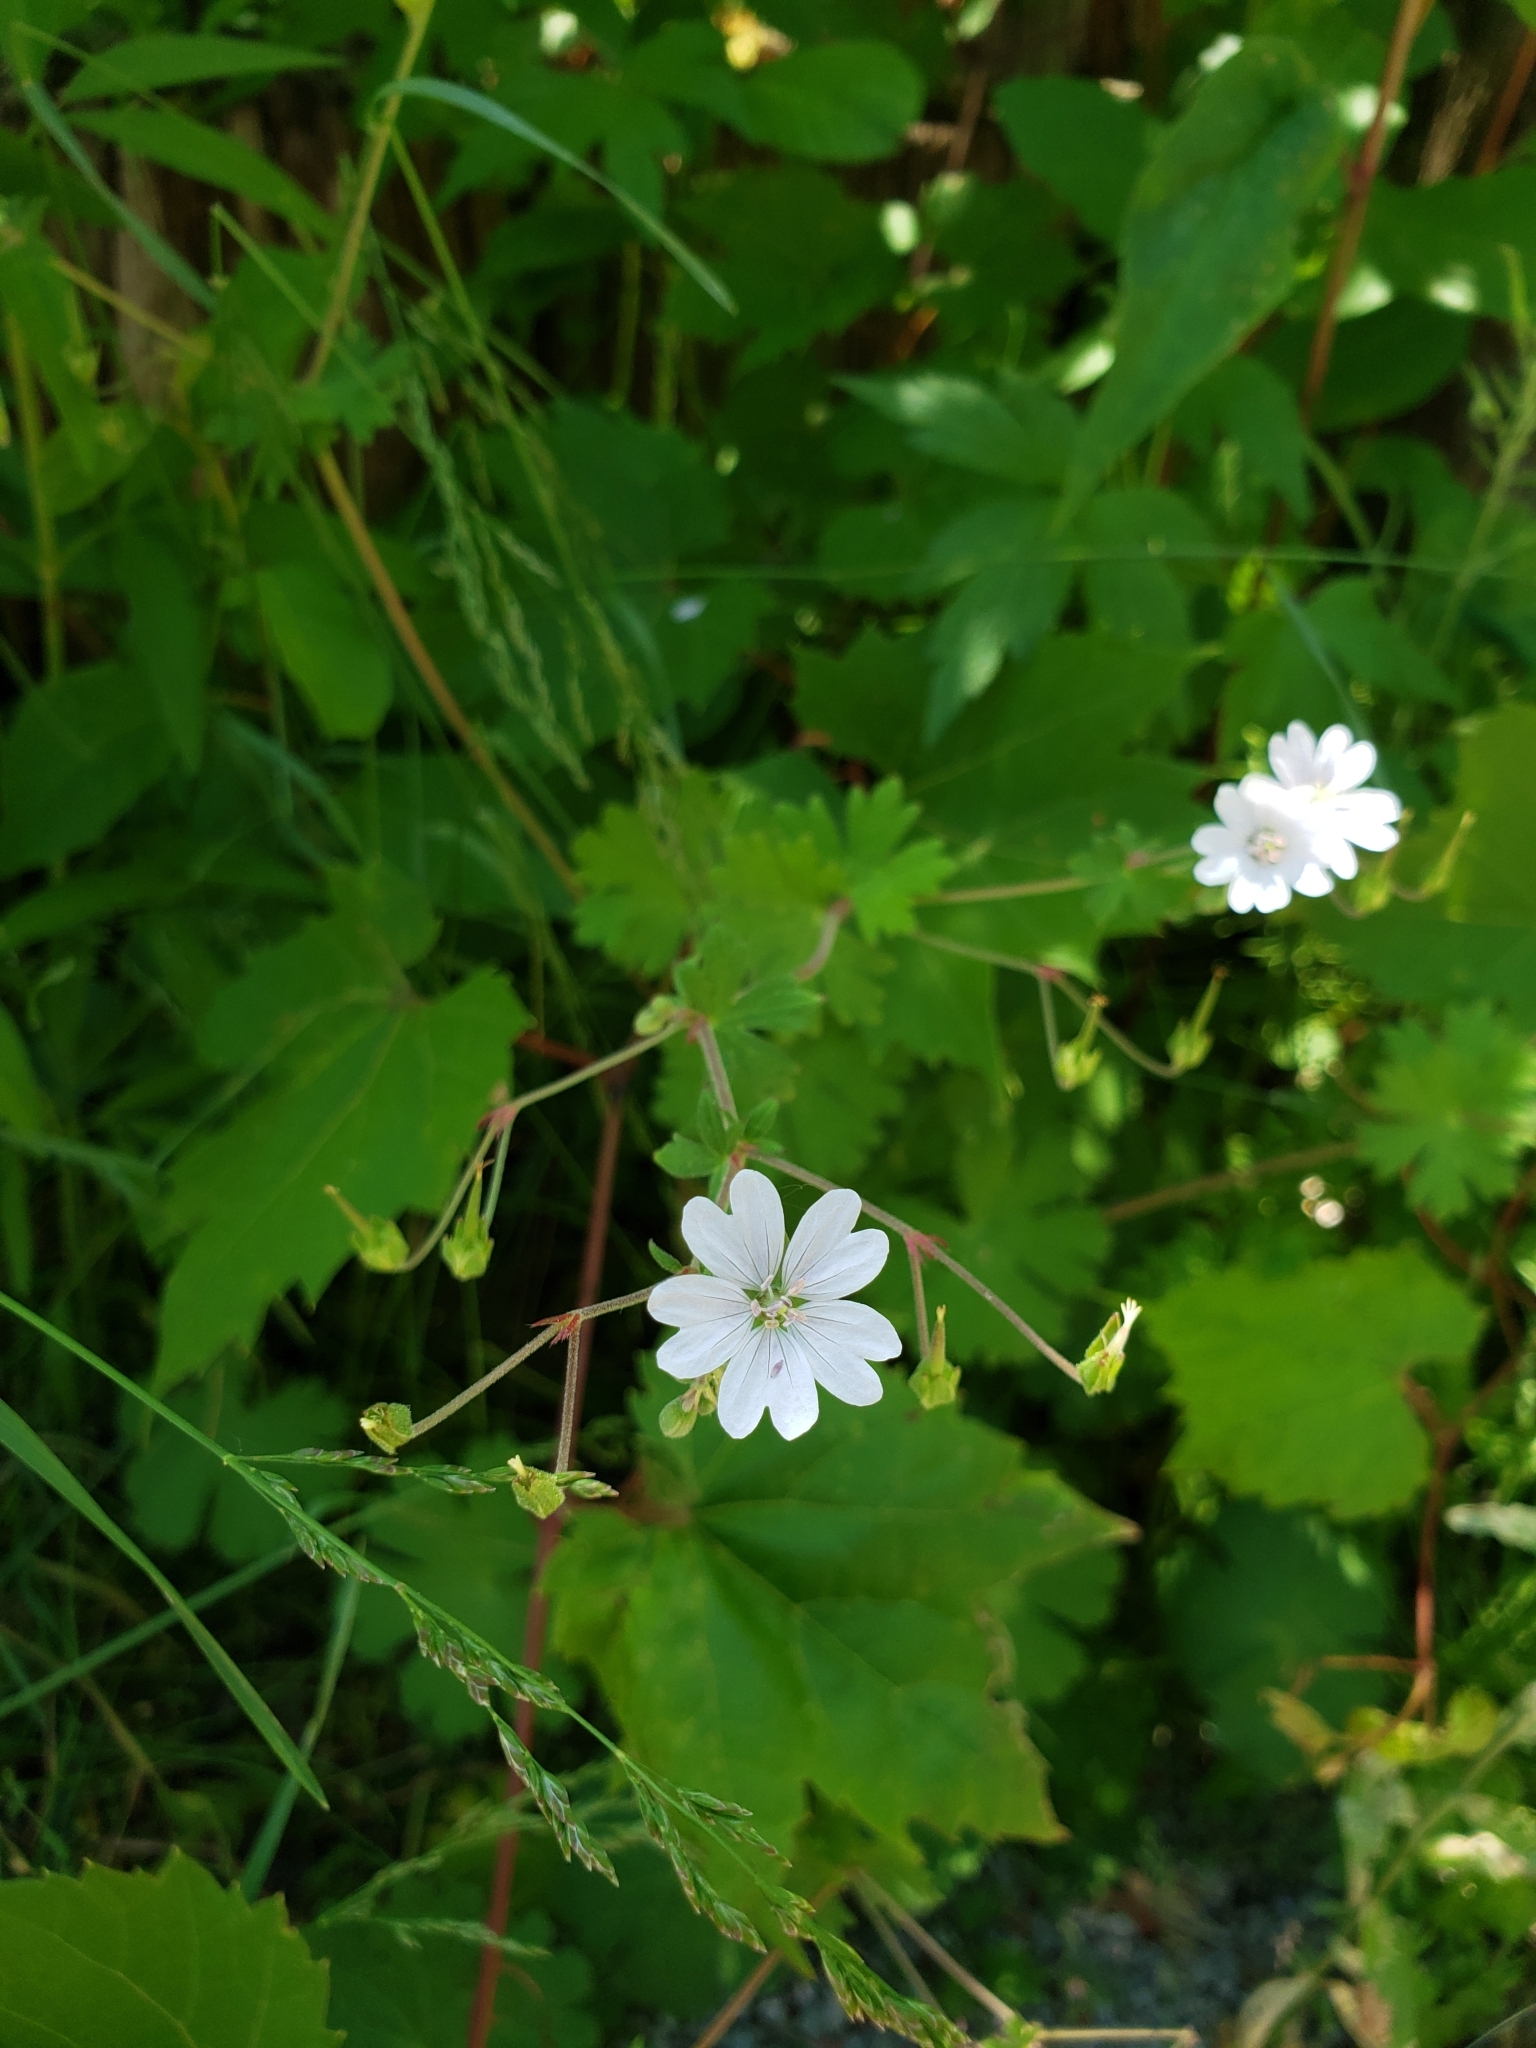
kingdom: Plantae
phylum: Tracheophyta
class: Magnoliopsida
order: Caryophyllales
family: Caryophyllaceae
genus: Silene
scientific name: Silene latifolia
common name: White campion
